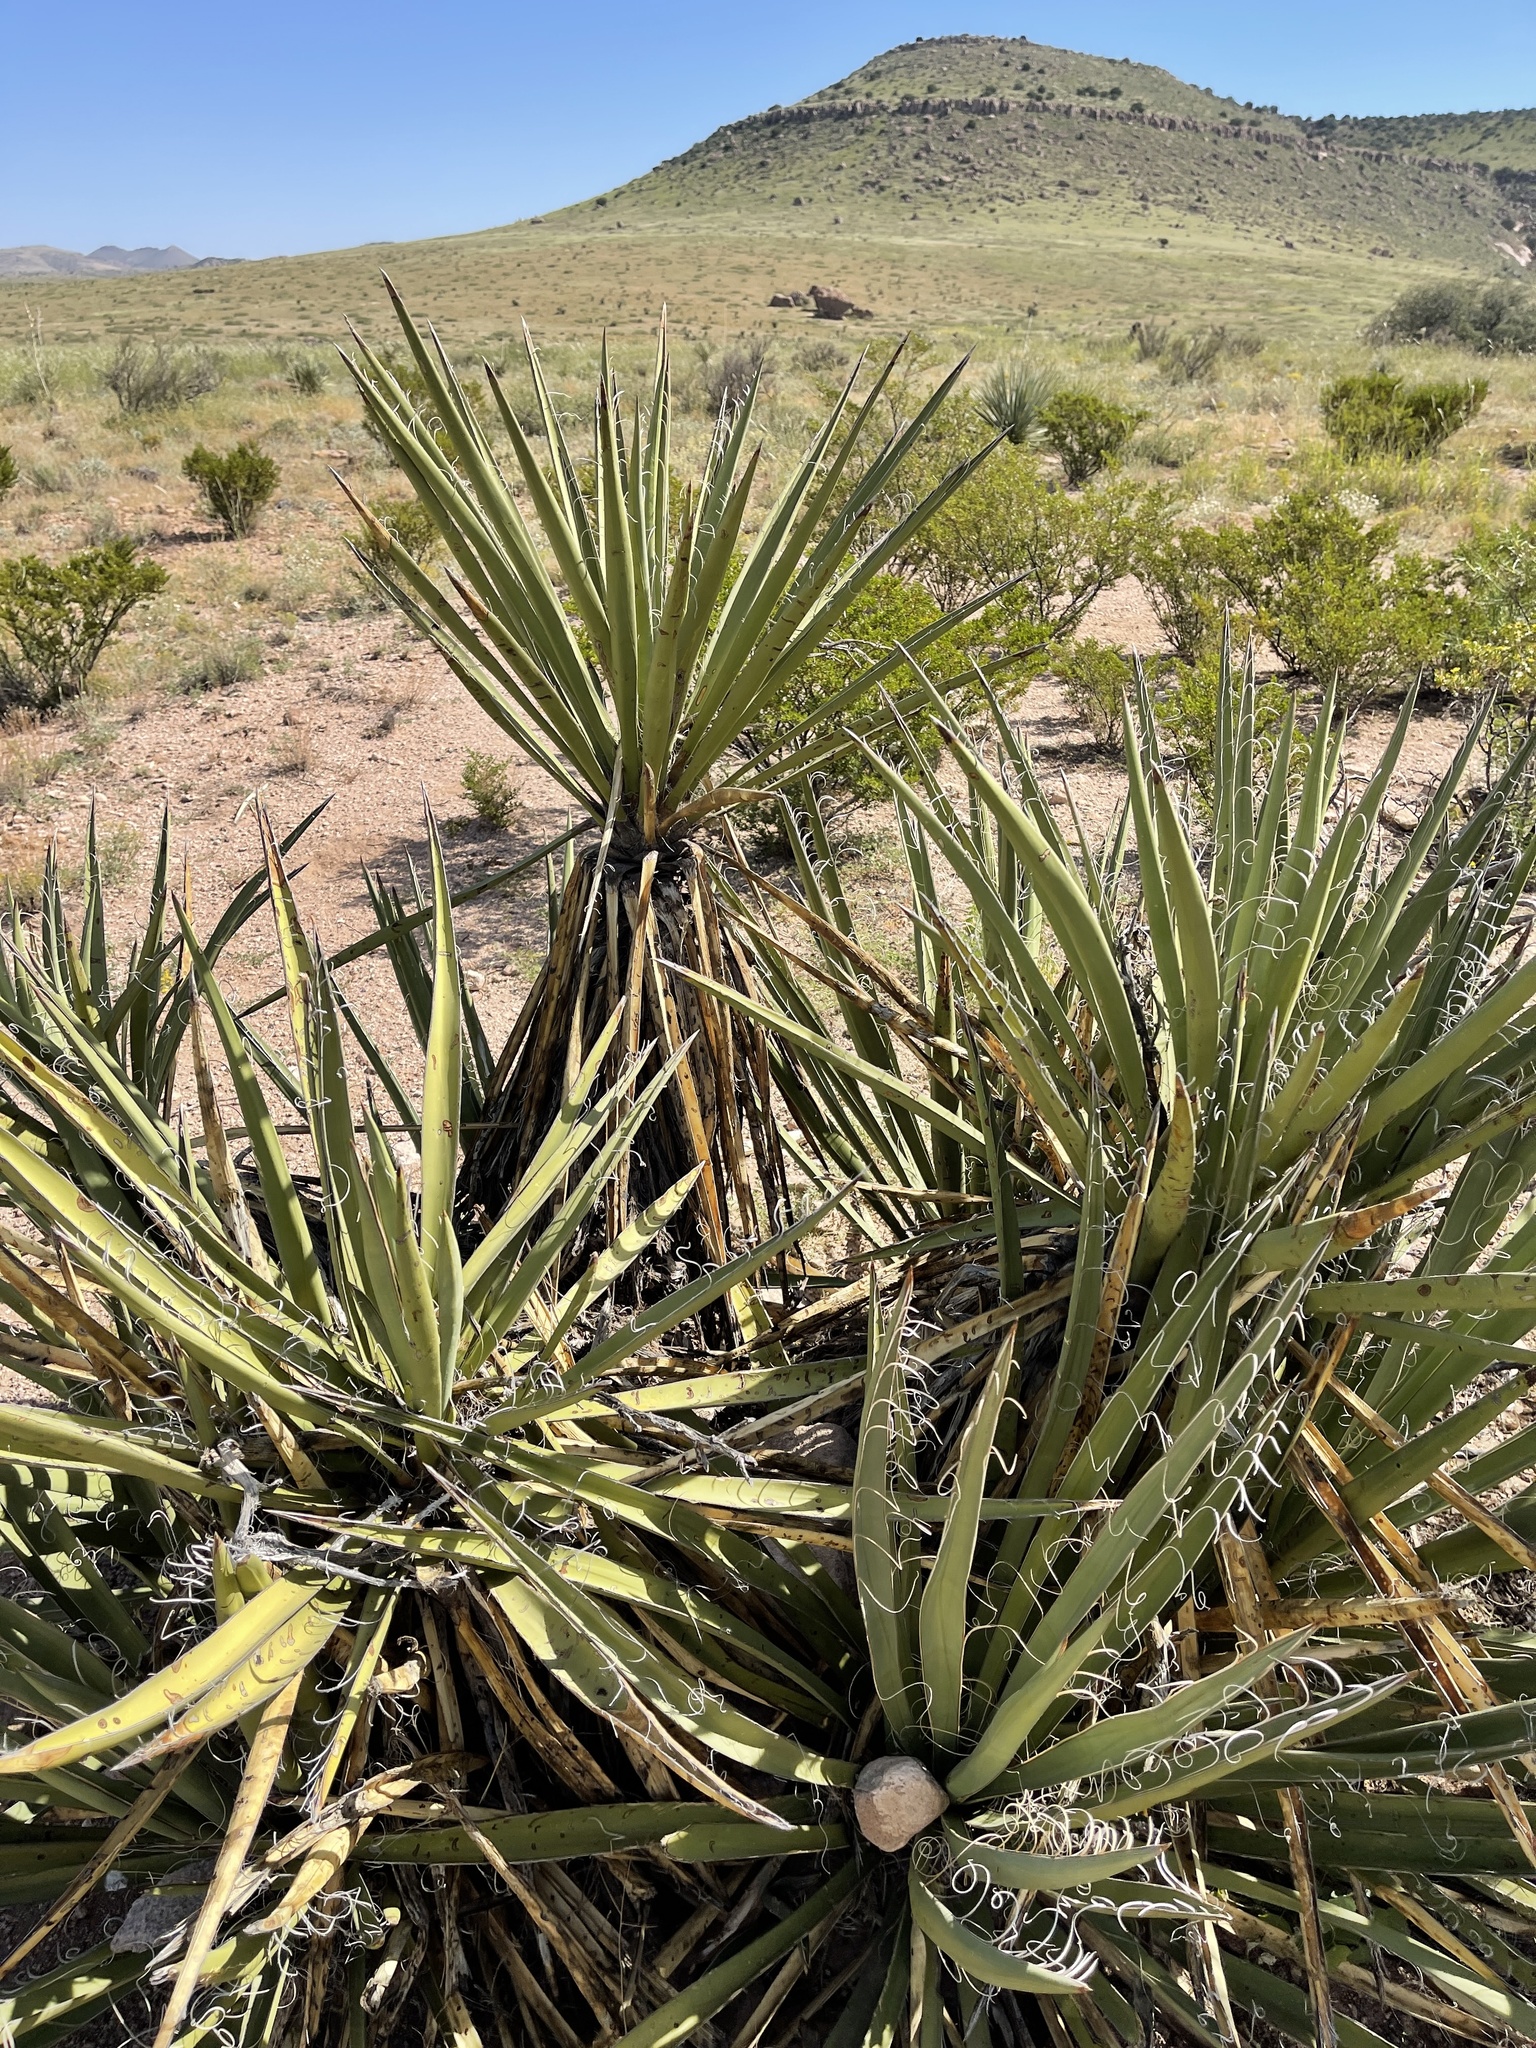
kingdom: Plantae
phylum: Tracheophyta
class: Liliopsida
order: Asparagales
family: Asparagaceae
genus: Yucca
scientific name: Yucca baccata
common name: Banana yucca
